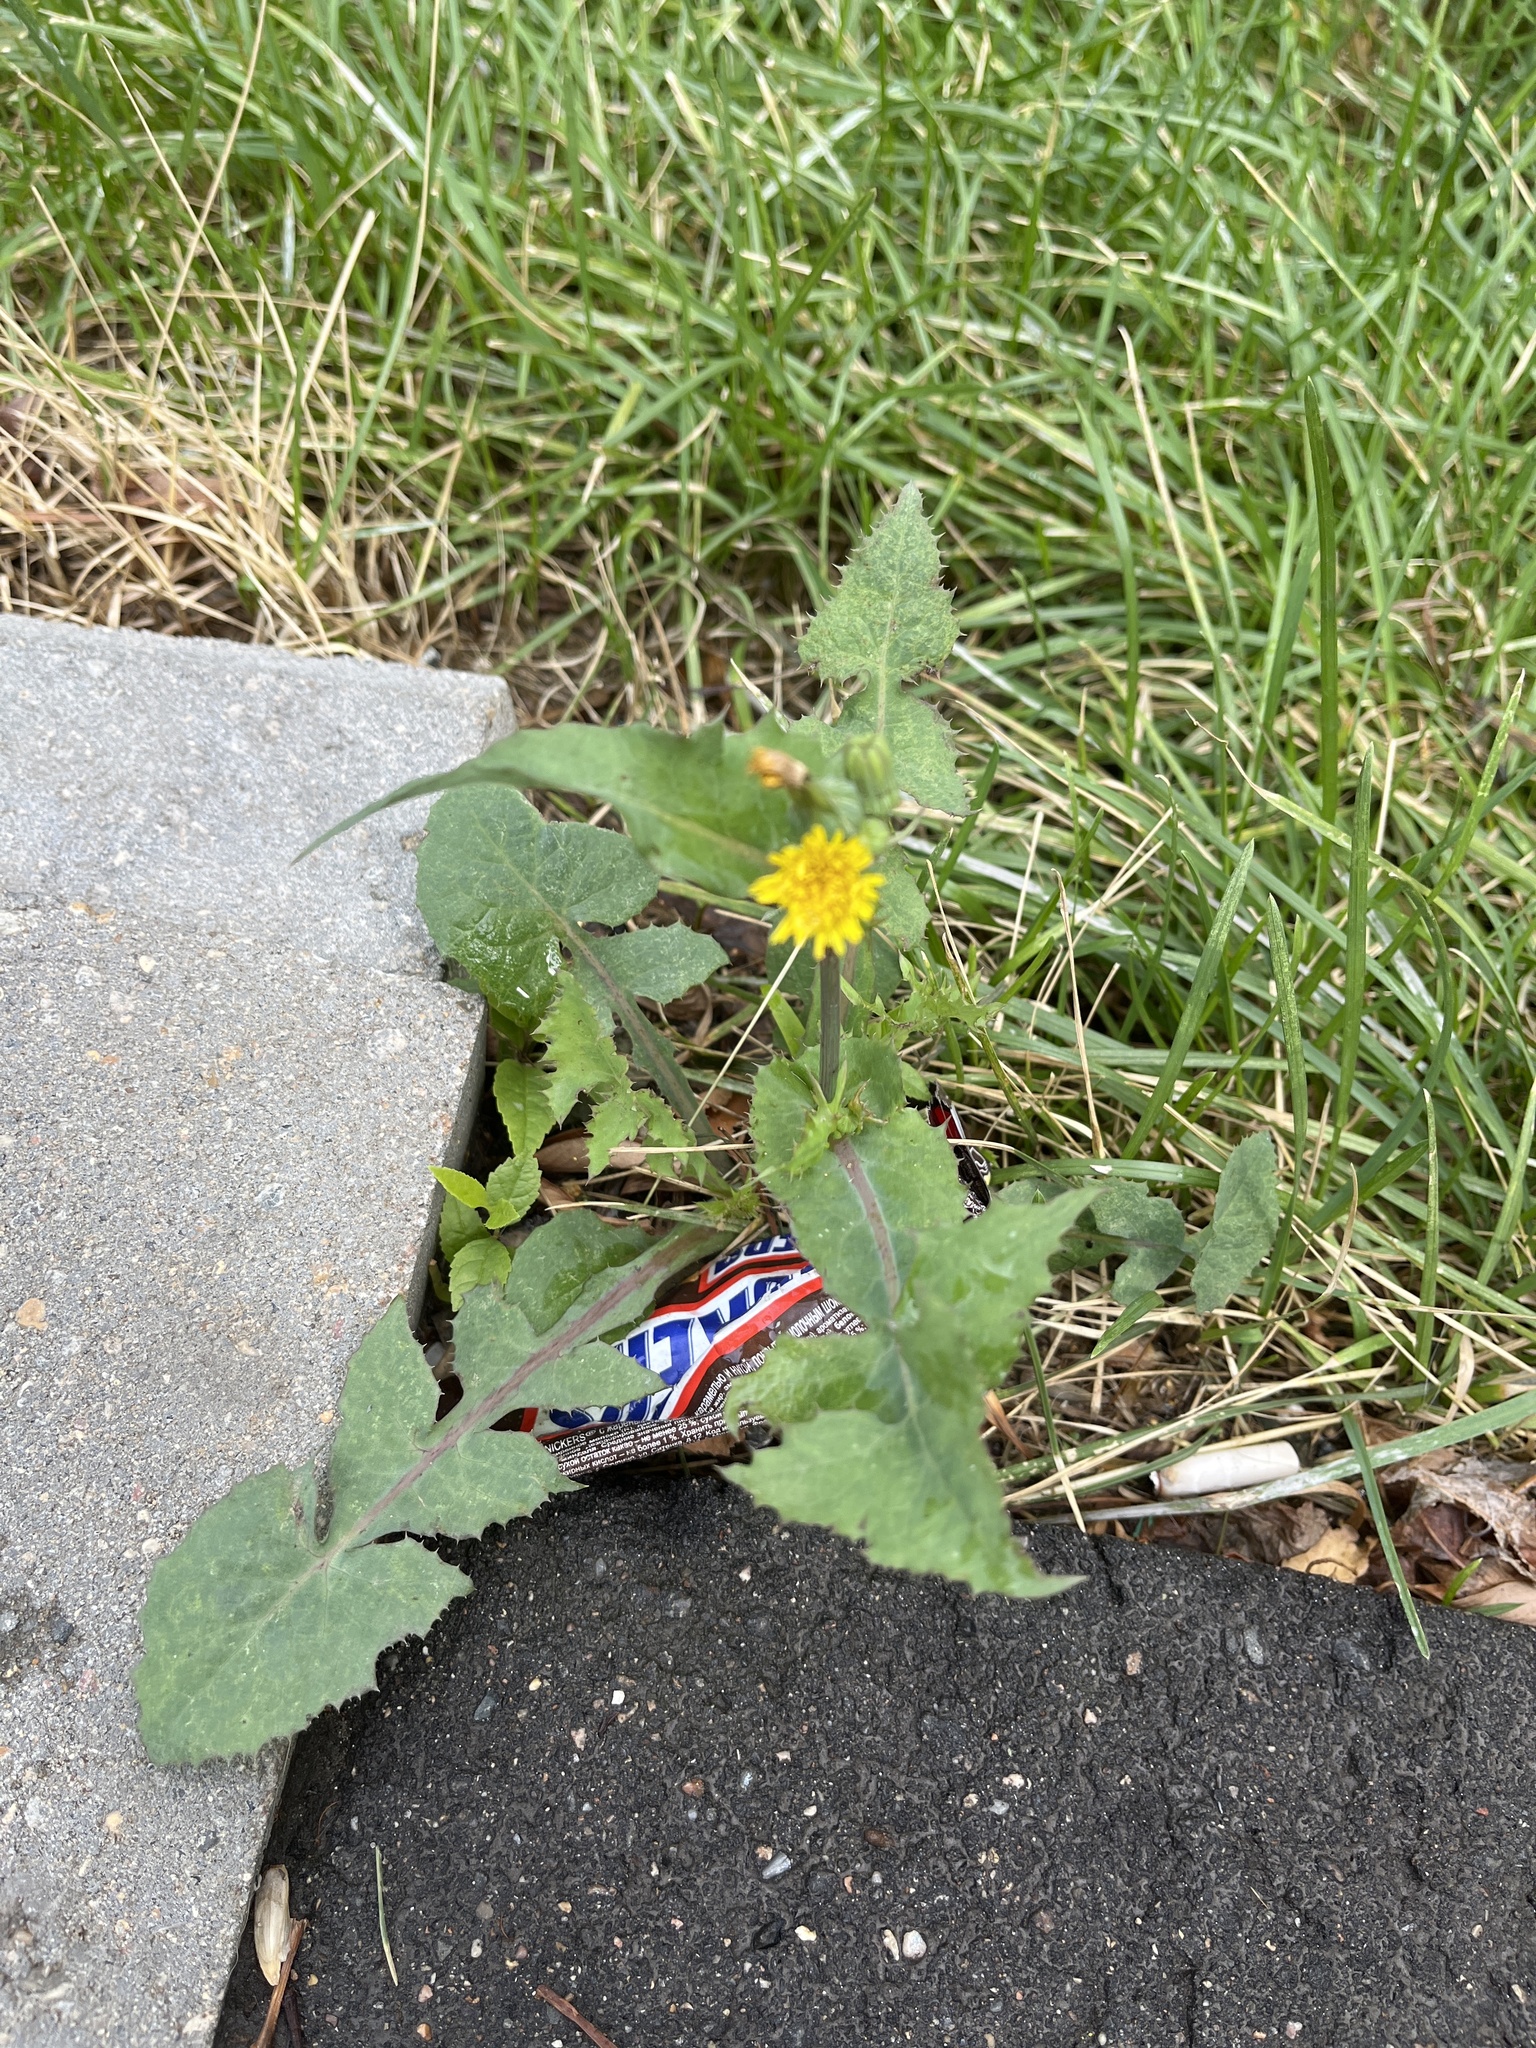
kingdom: Plantae
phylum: Tracheophyta
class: Magnoliopsida
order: Asterales
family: Asteraceae
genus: Sonchus
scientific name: Sonchus oleraceus
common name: Common sowthistle
